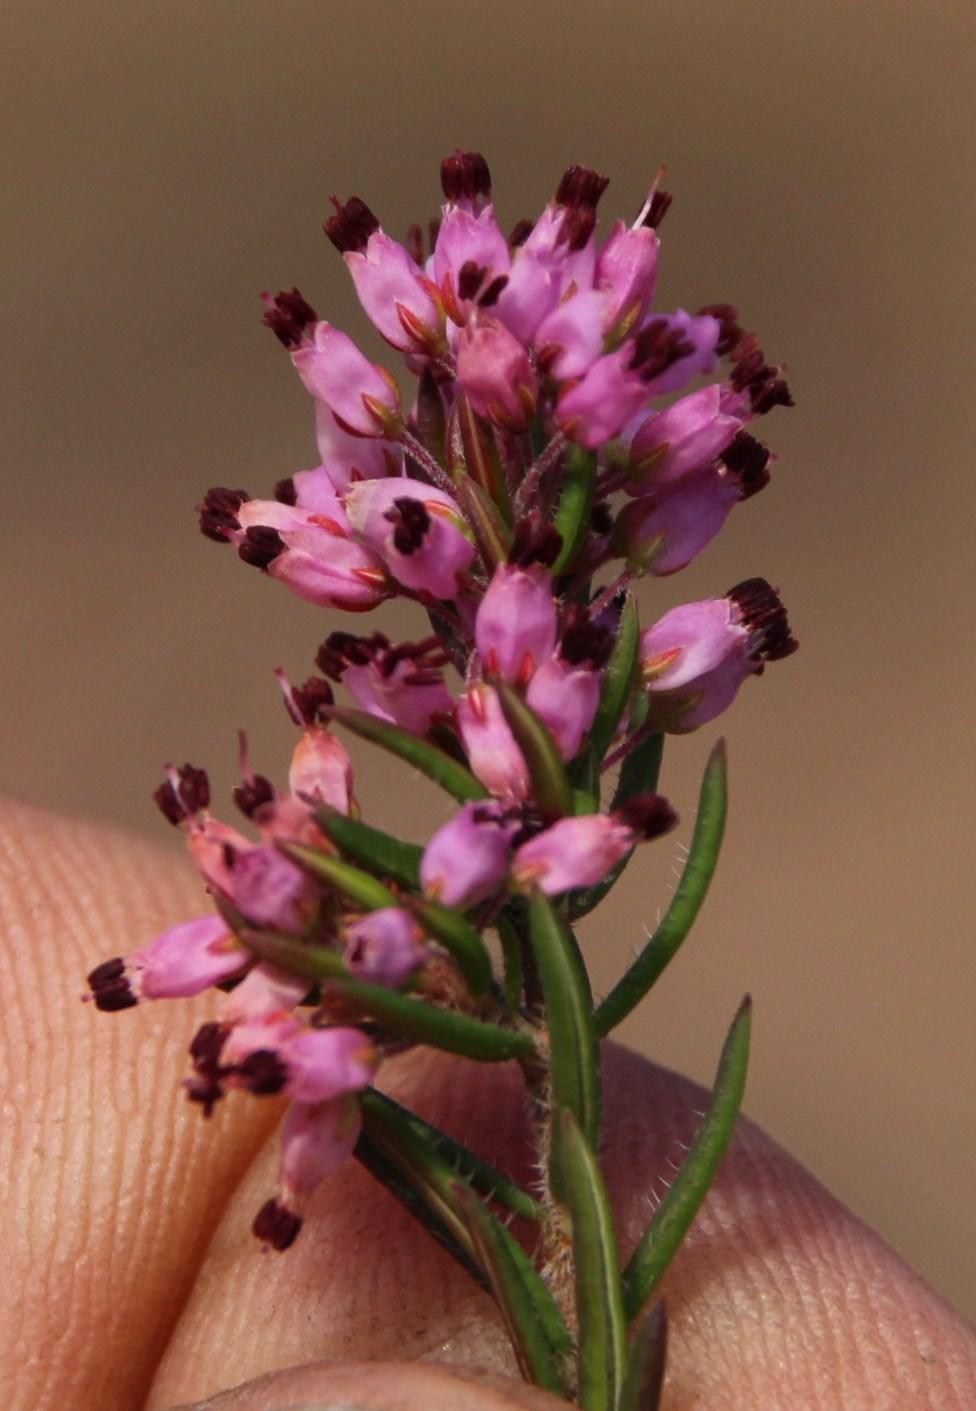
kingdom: Plantae
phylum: Tracheophyta
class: Magnoliopsida
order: Ericales
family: Ericaceae
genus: Erica
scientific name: Erica nudiflora
